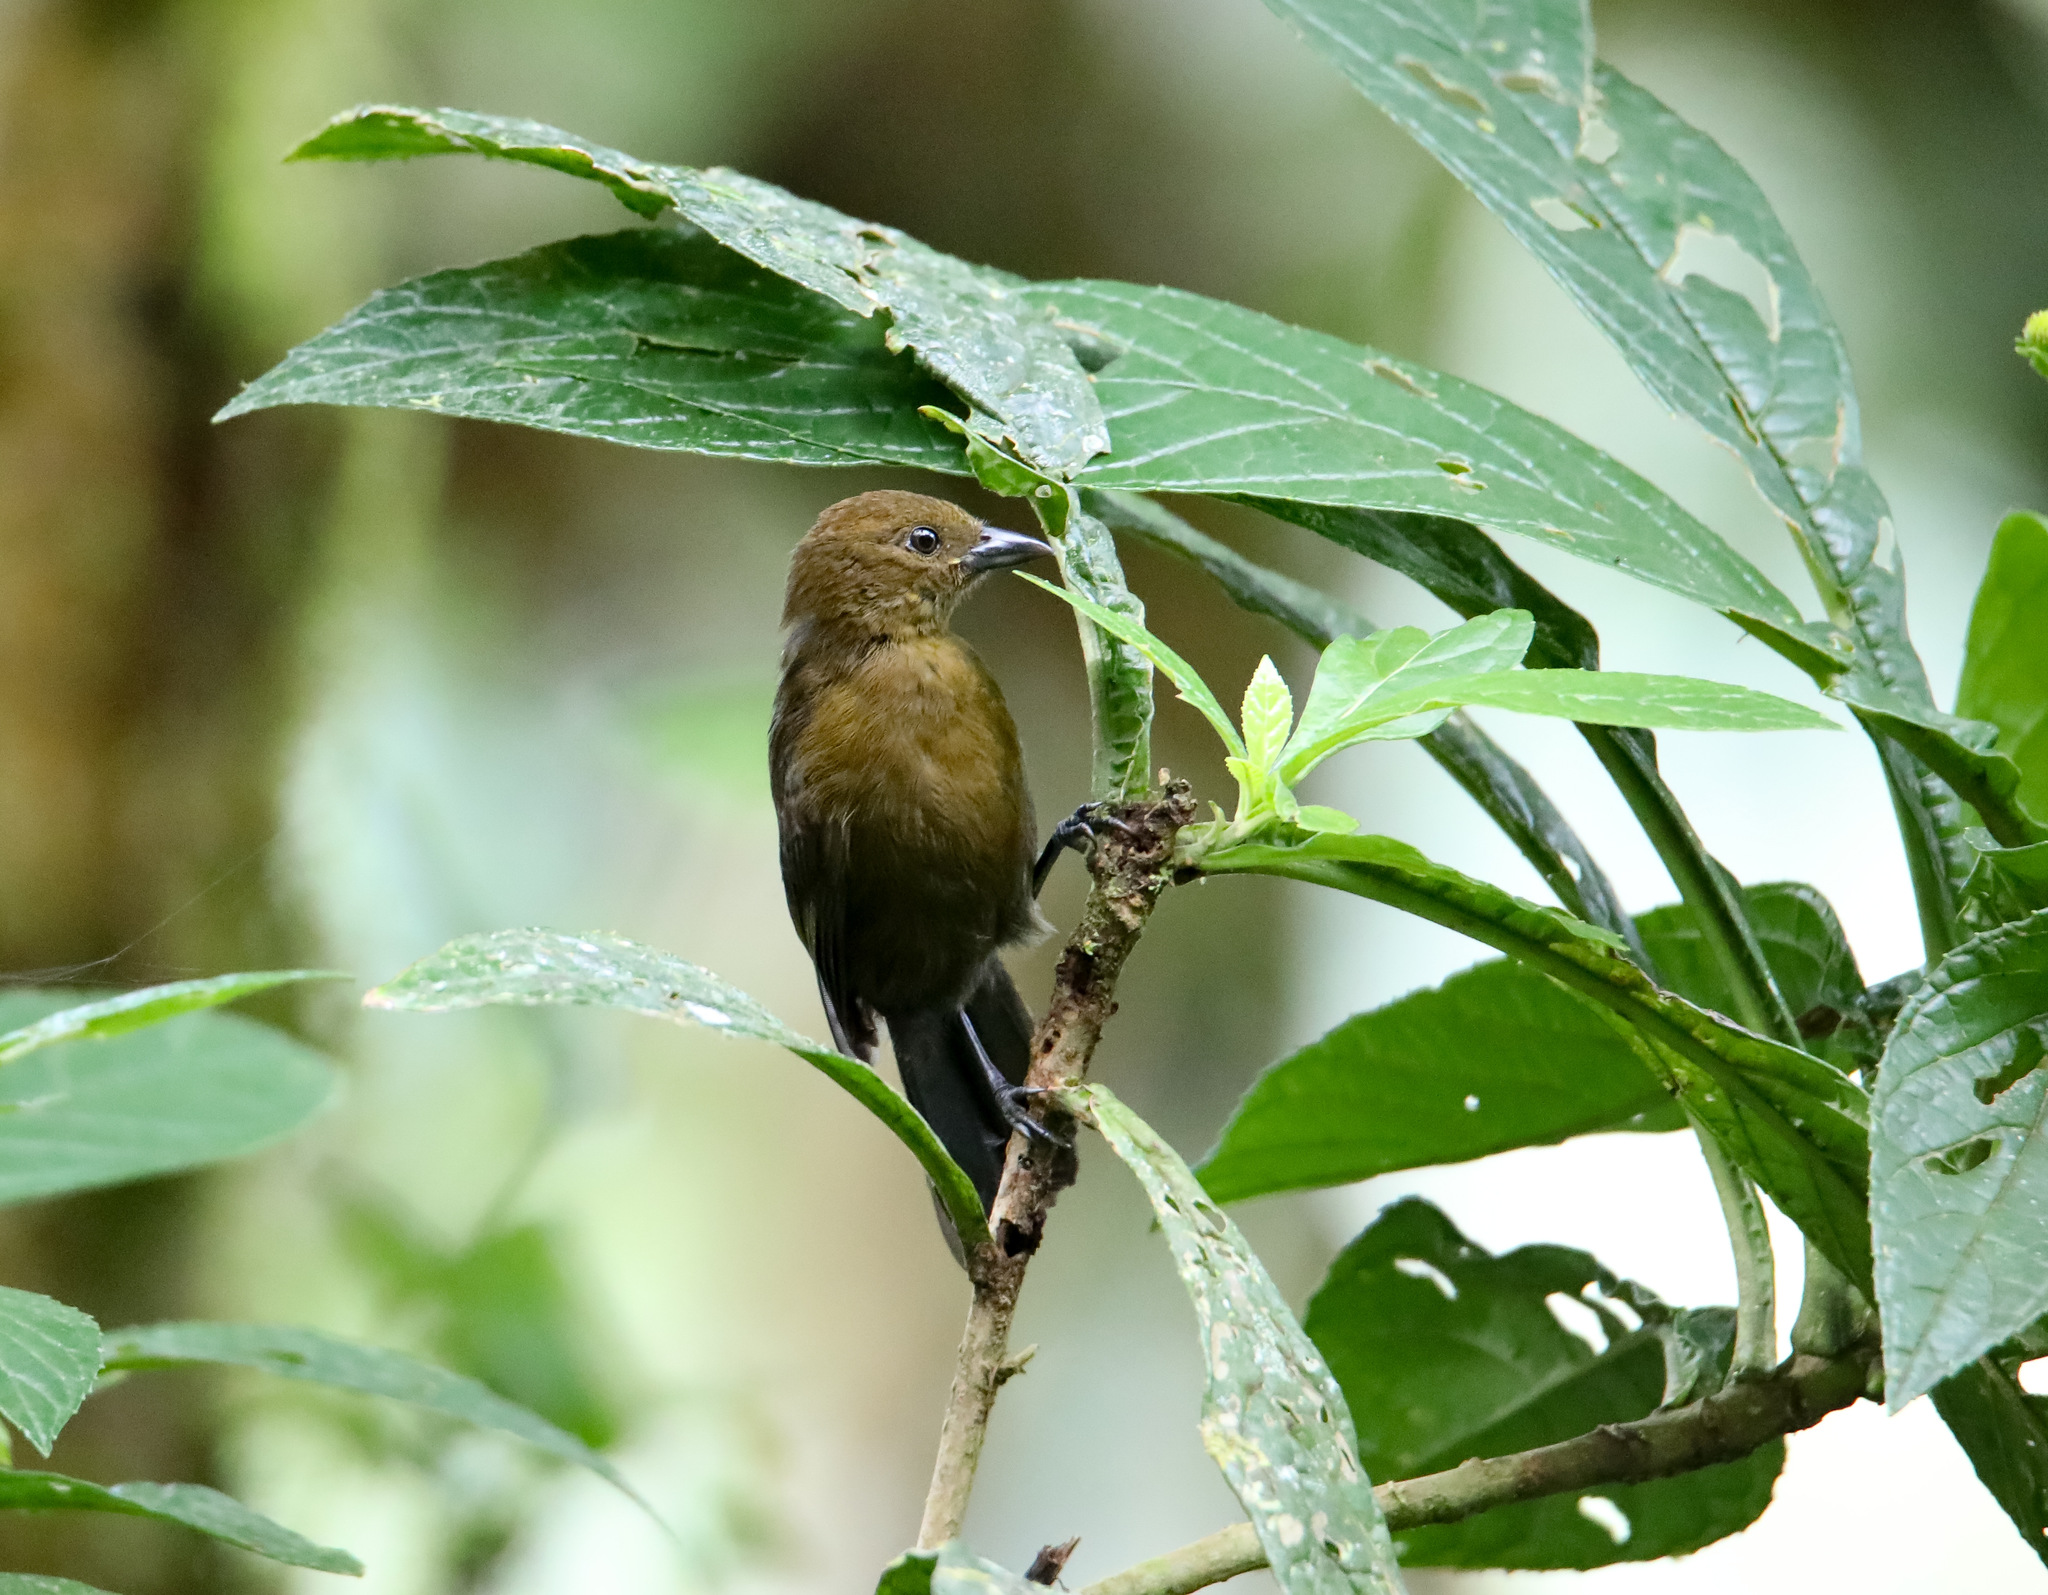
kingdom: Animalia
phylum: Chordata
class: Aves
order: Passeriformes
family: Thraupidae
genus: Tachyphonus
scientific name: Tachyphonus delatrii
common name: Tawny-crested tanager
